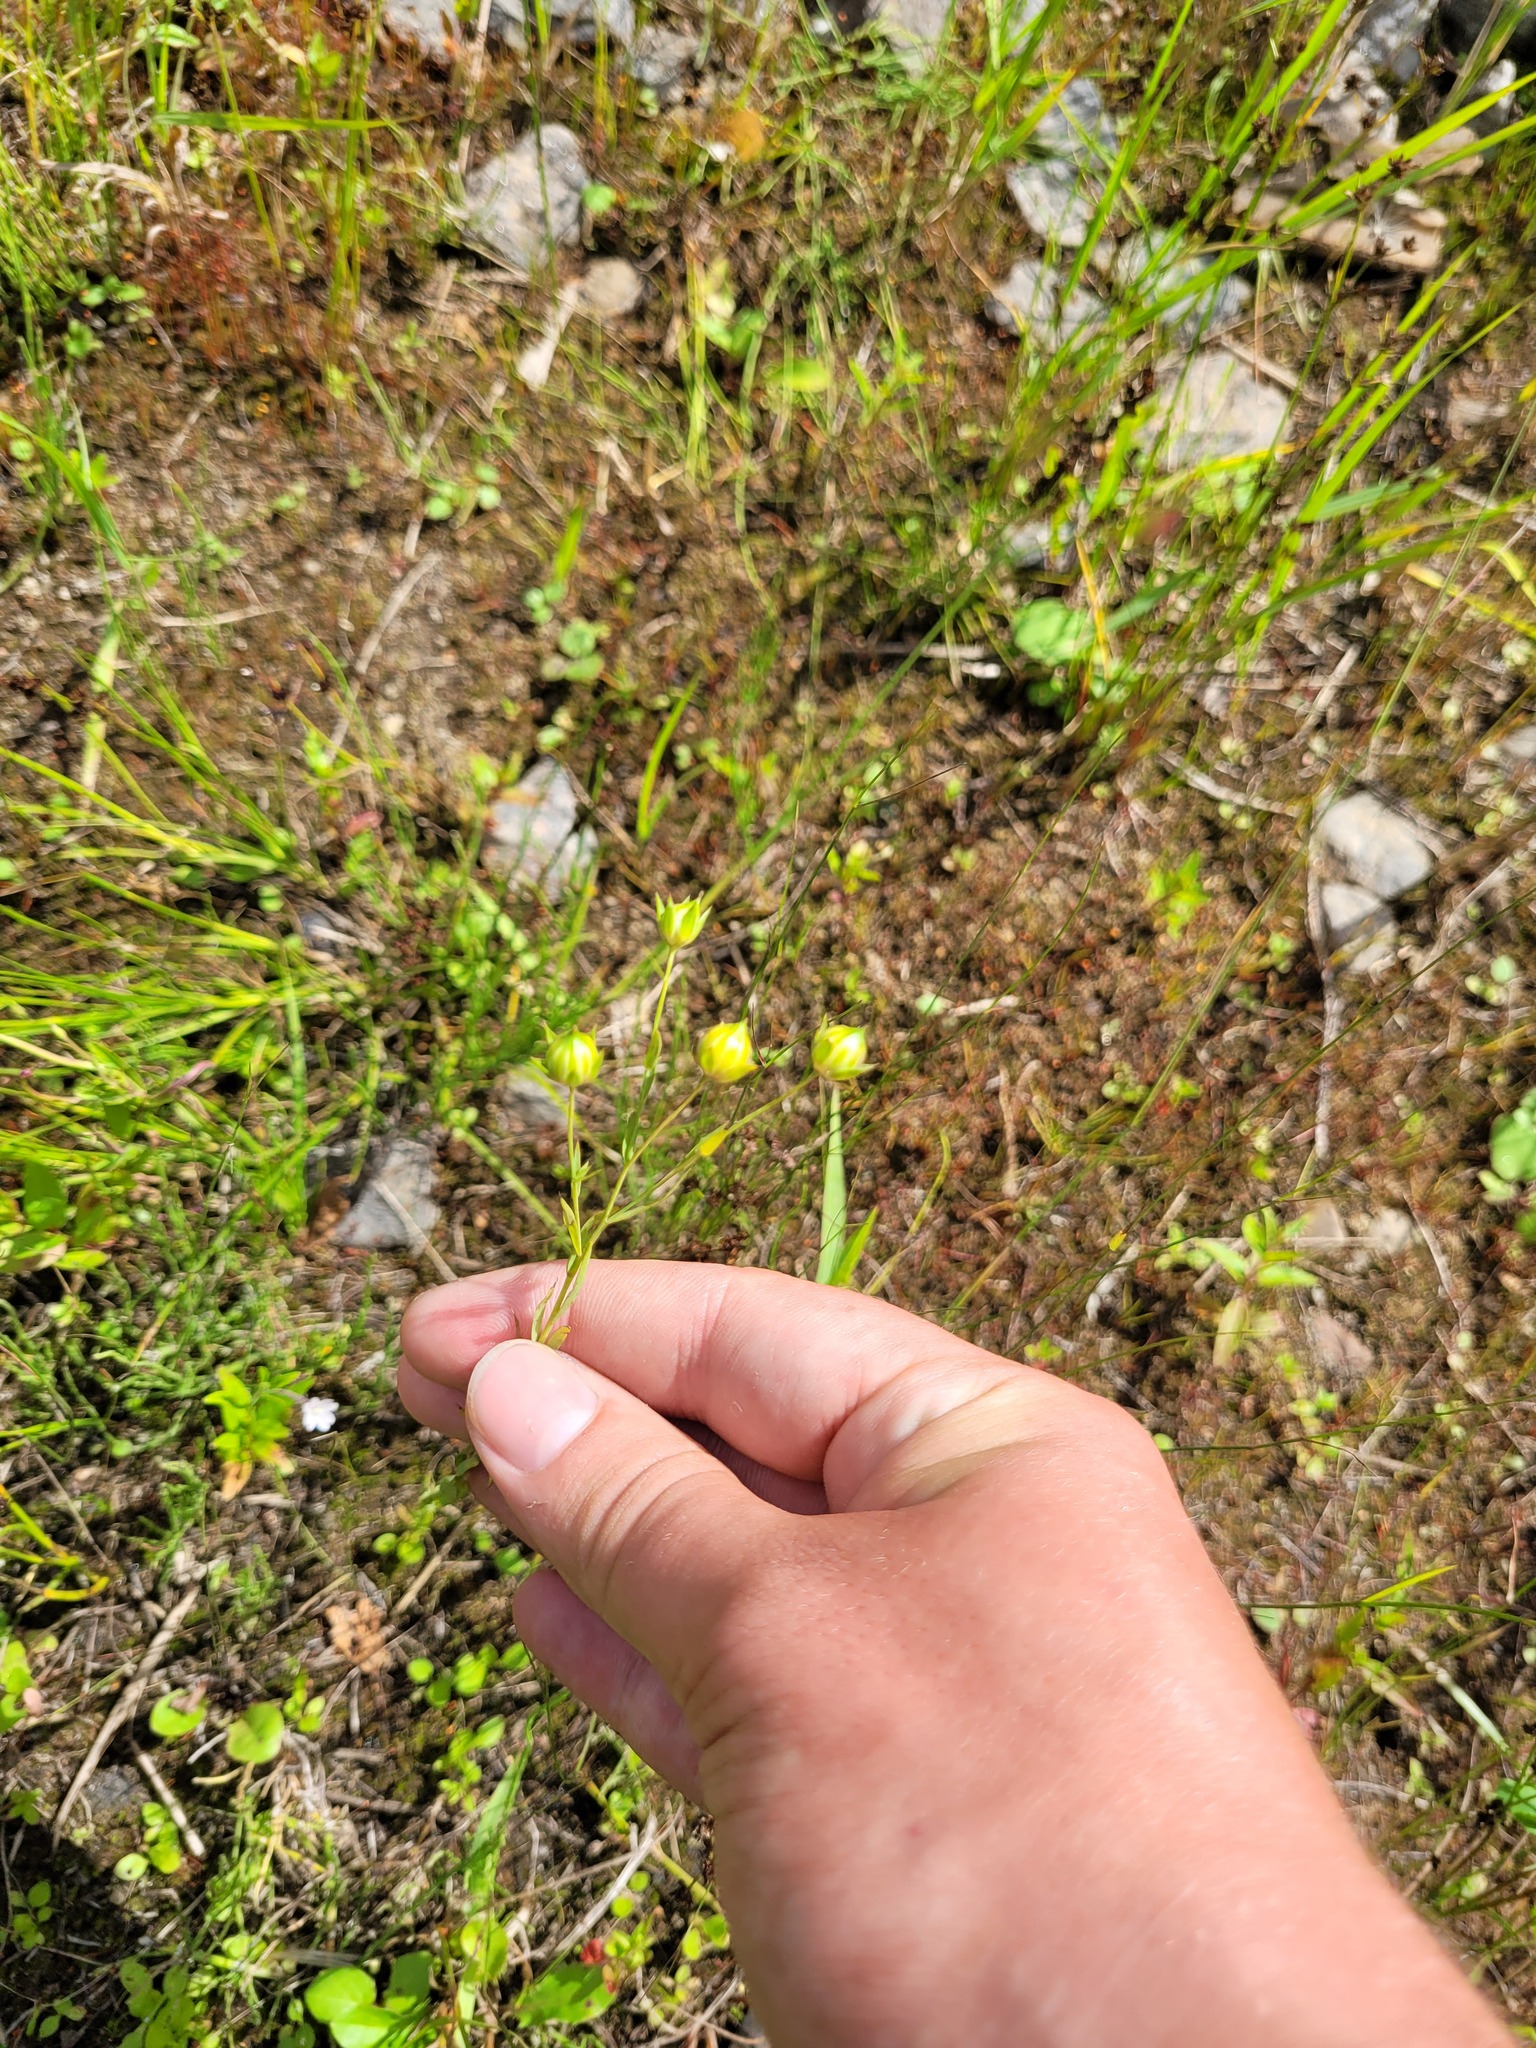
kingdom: Plantae
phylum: Tracheophyta
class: Magnoliopsida
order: Malpighiales
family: Linaceae
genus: Linum
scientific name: Linum usitatissimum
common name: Flax
